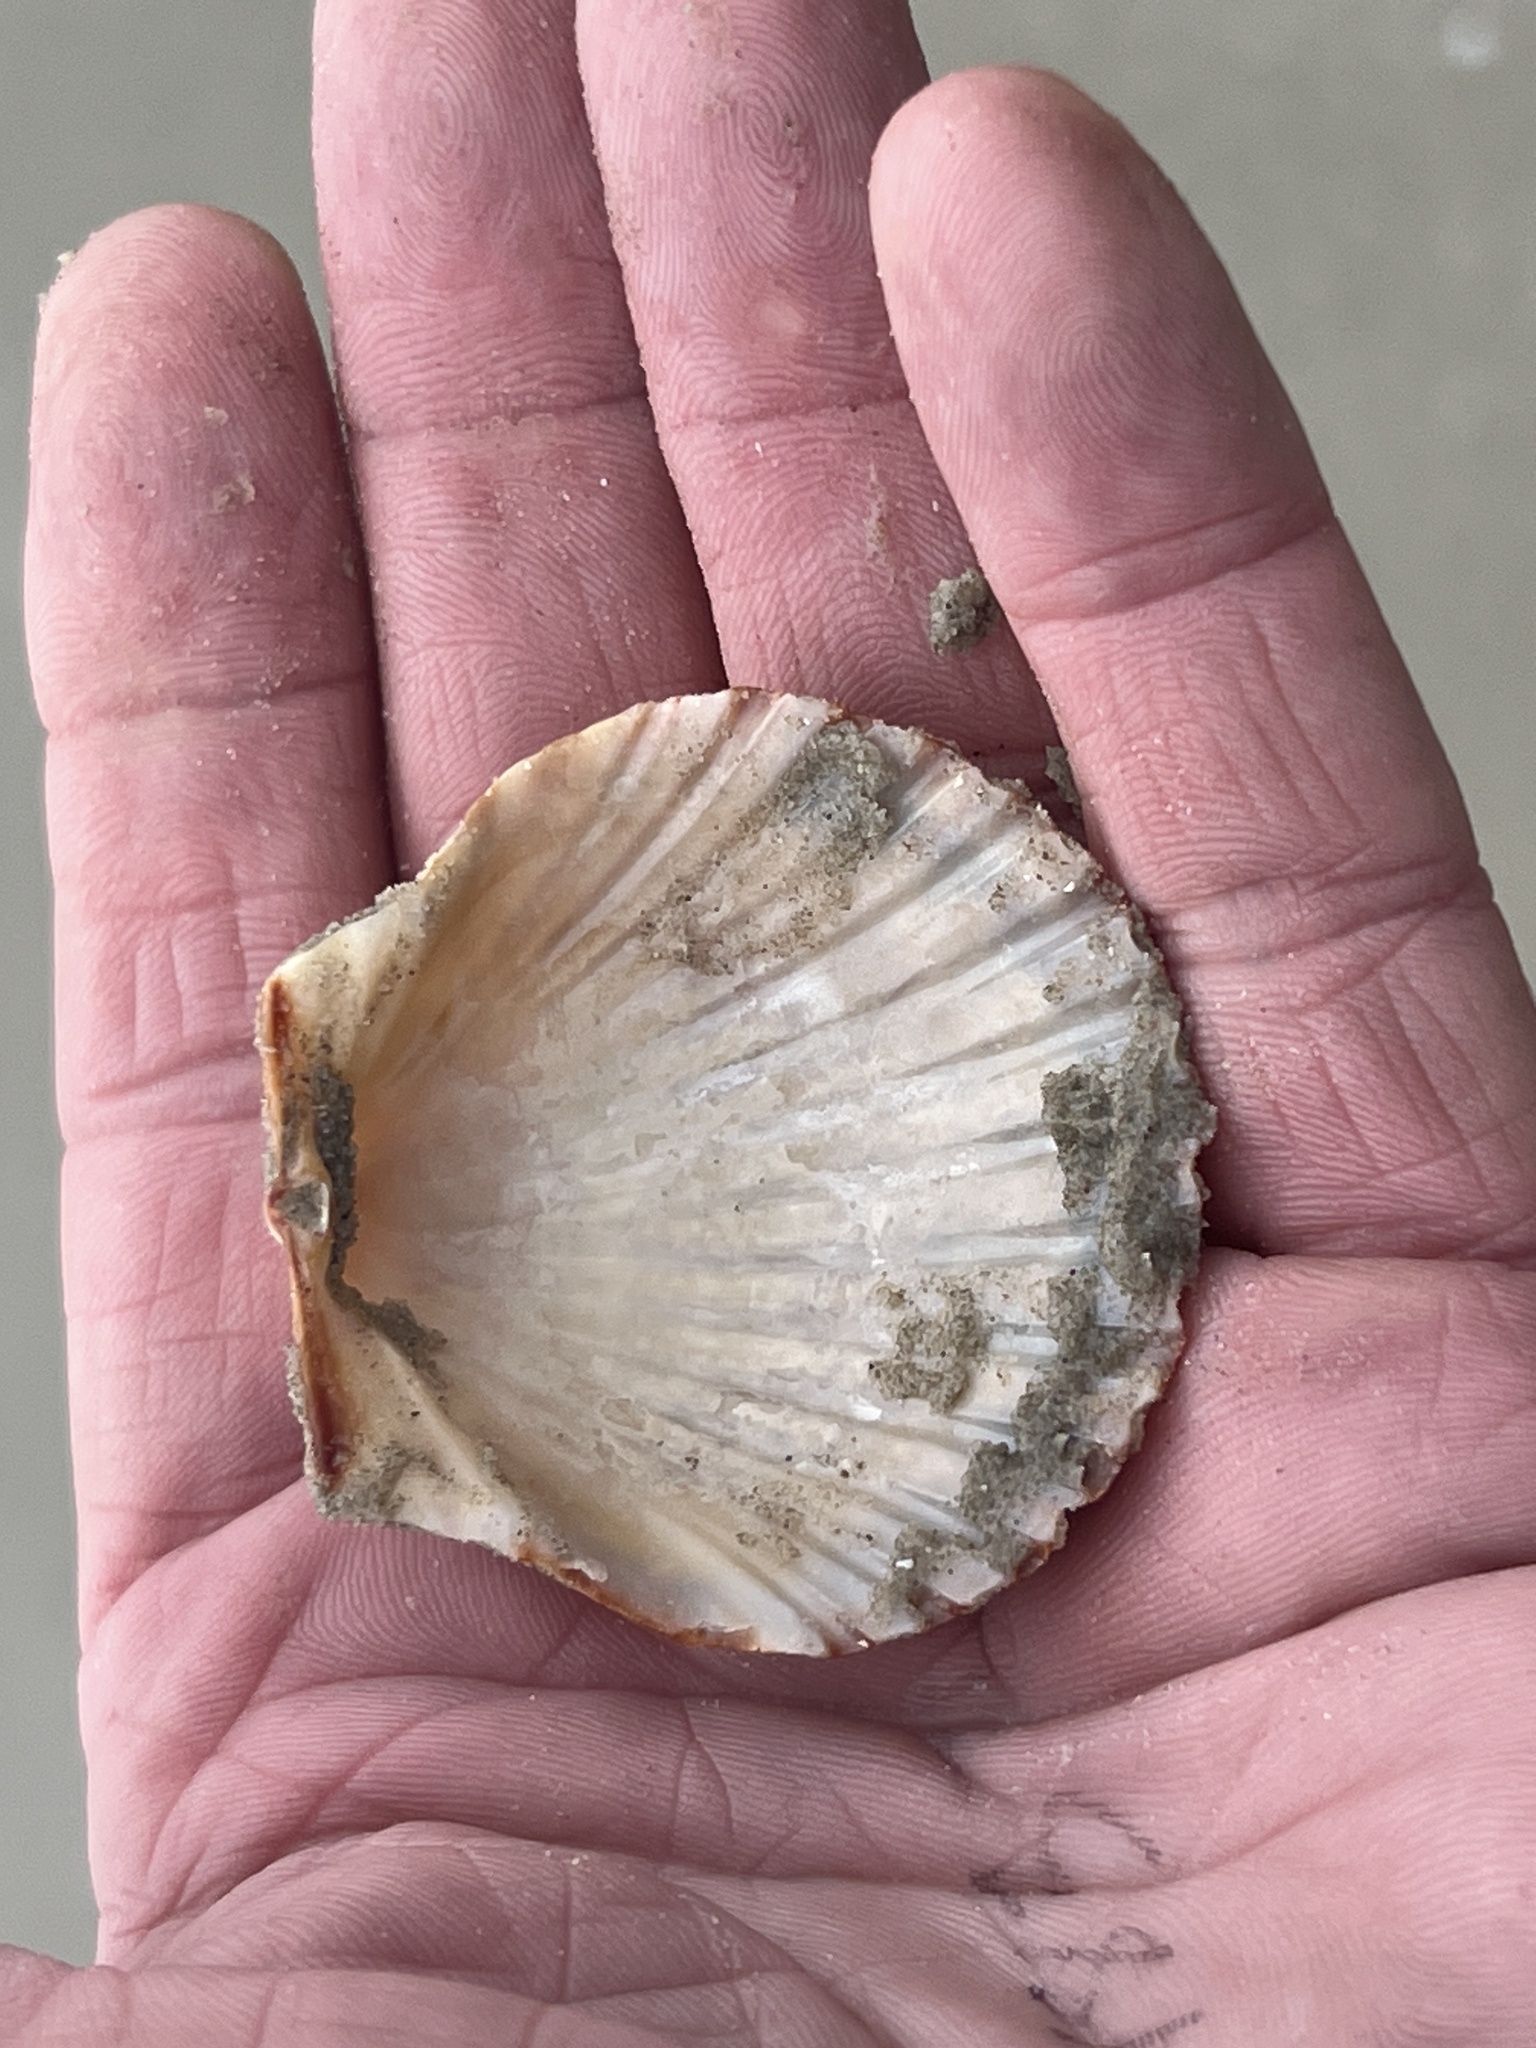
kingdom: Animalia
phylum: Mollusca
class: Bivalvia
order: Pectinida
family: Pectinidae
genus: Argopecten
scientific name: Argopecten irradians
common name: Atlantic bay scallop
